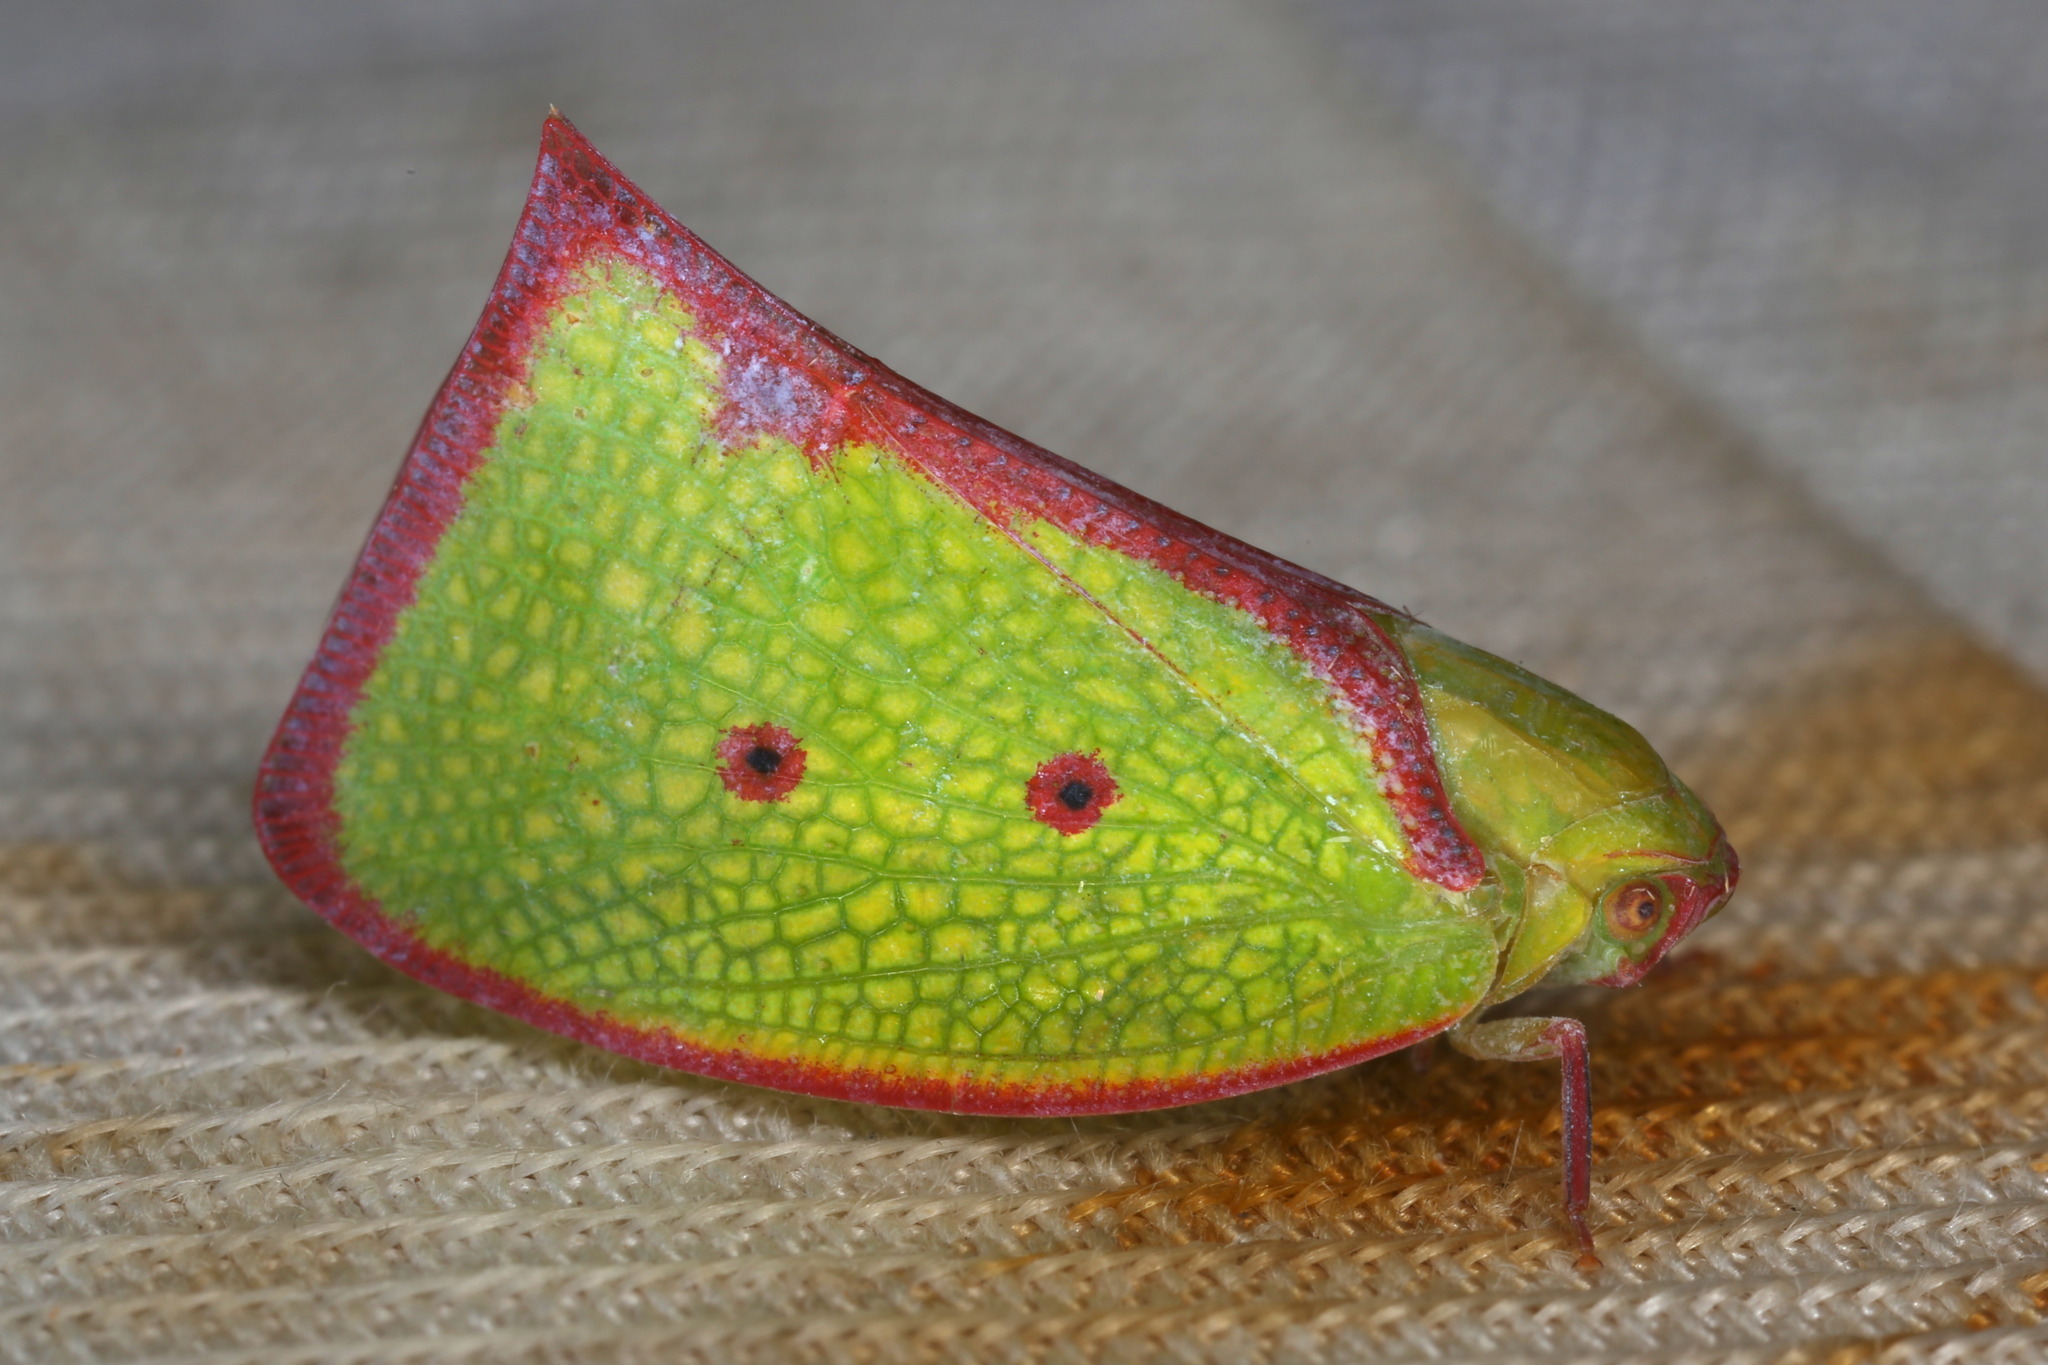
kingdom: Animalia
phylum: Arthropoda
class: Insecta
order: Hemiptera
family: Flatidae
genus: Carthaeomorpha
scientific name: Carthaeomorpha rufipes
